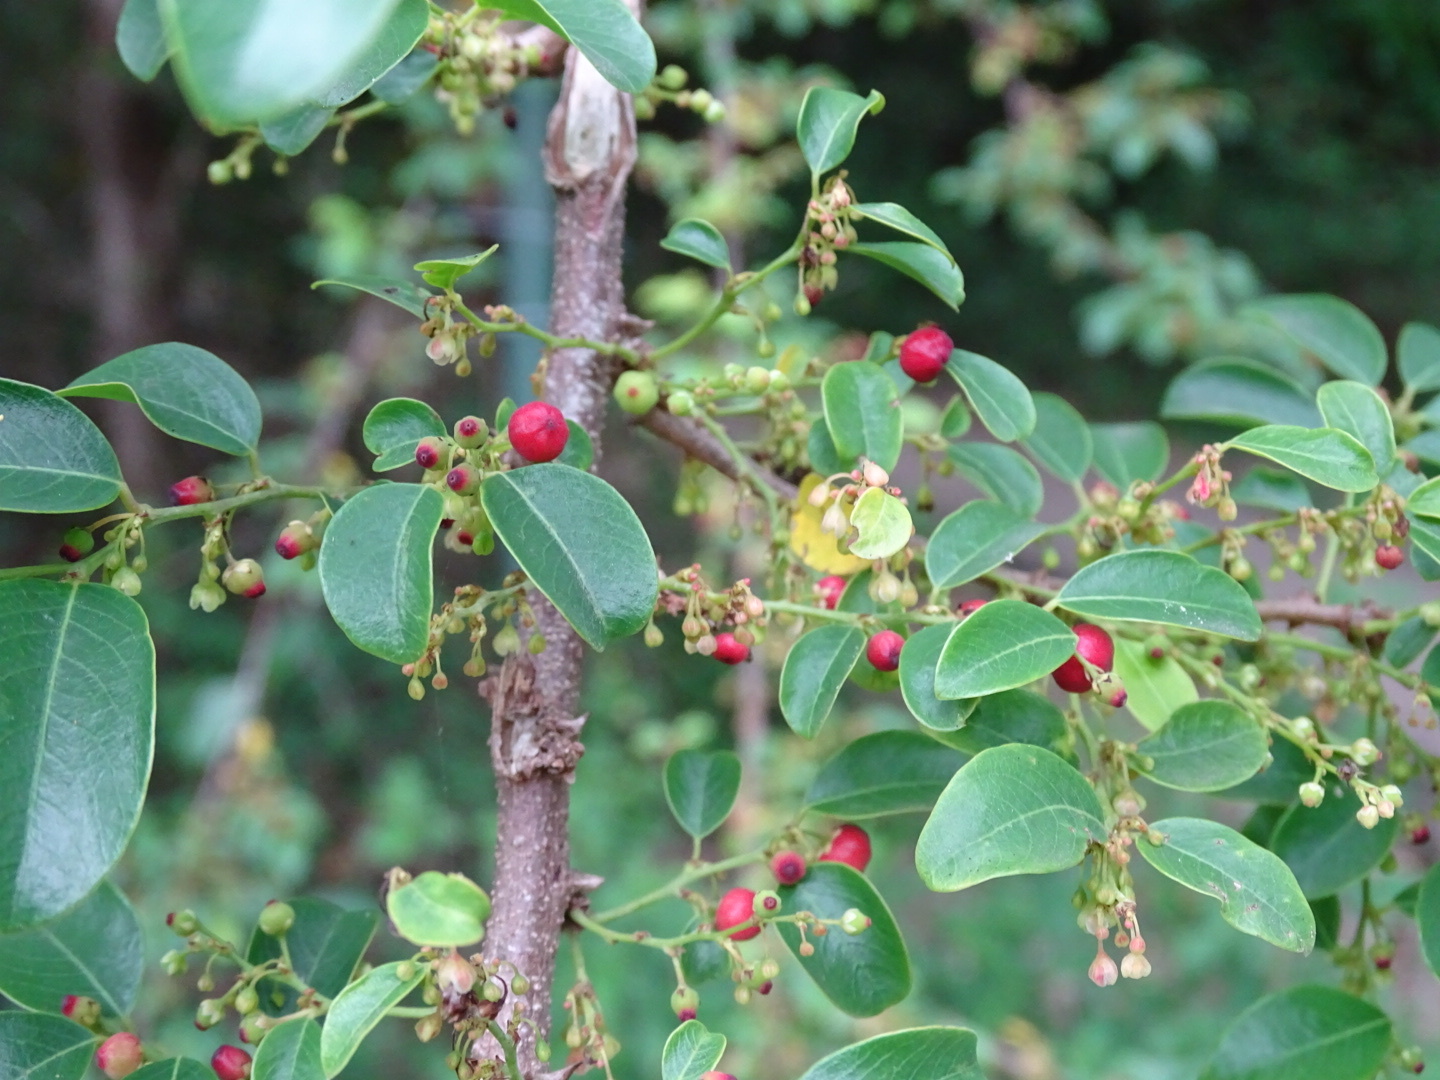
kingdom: Plantae
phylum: Tracheophyta
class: Magnoliopsida
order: Malpighiales
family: Phyllanthaceae
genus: Phyllanthus
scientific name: Phyllanthus reticulatus
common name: Potato bush
